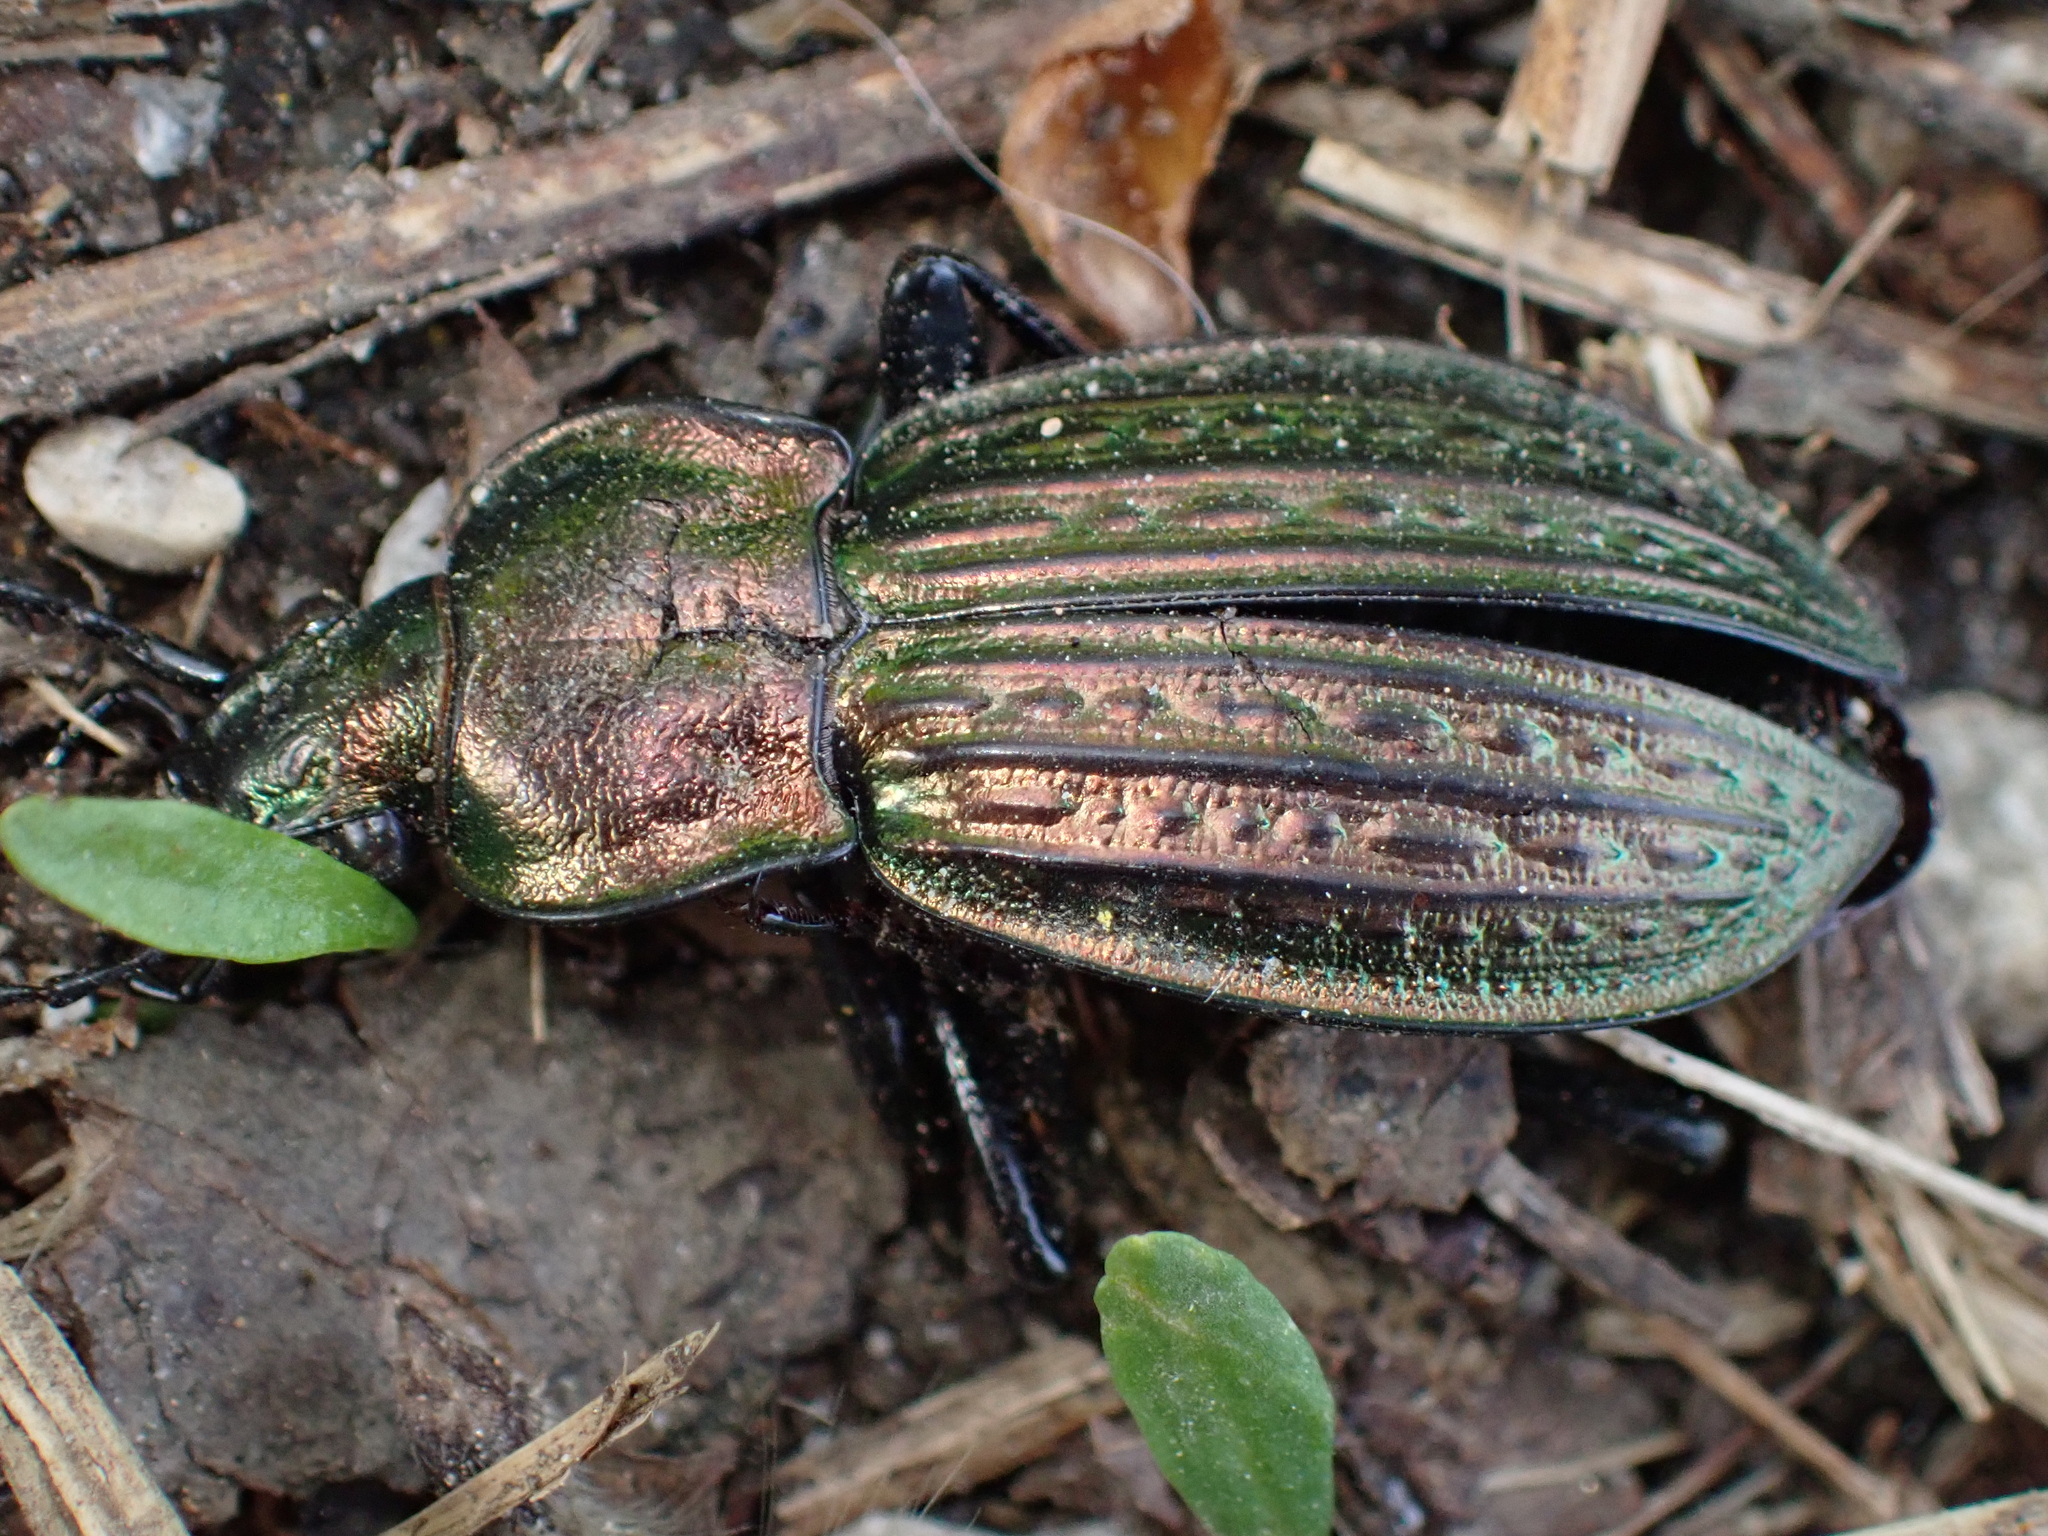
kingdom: Animalia
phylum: Arthropoda
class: Insecta
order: Coleoptera
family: Carabidae
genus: Carabus
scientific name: Carabus ulrichii
